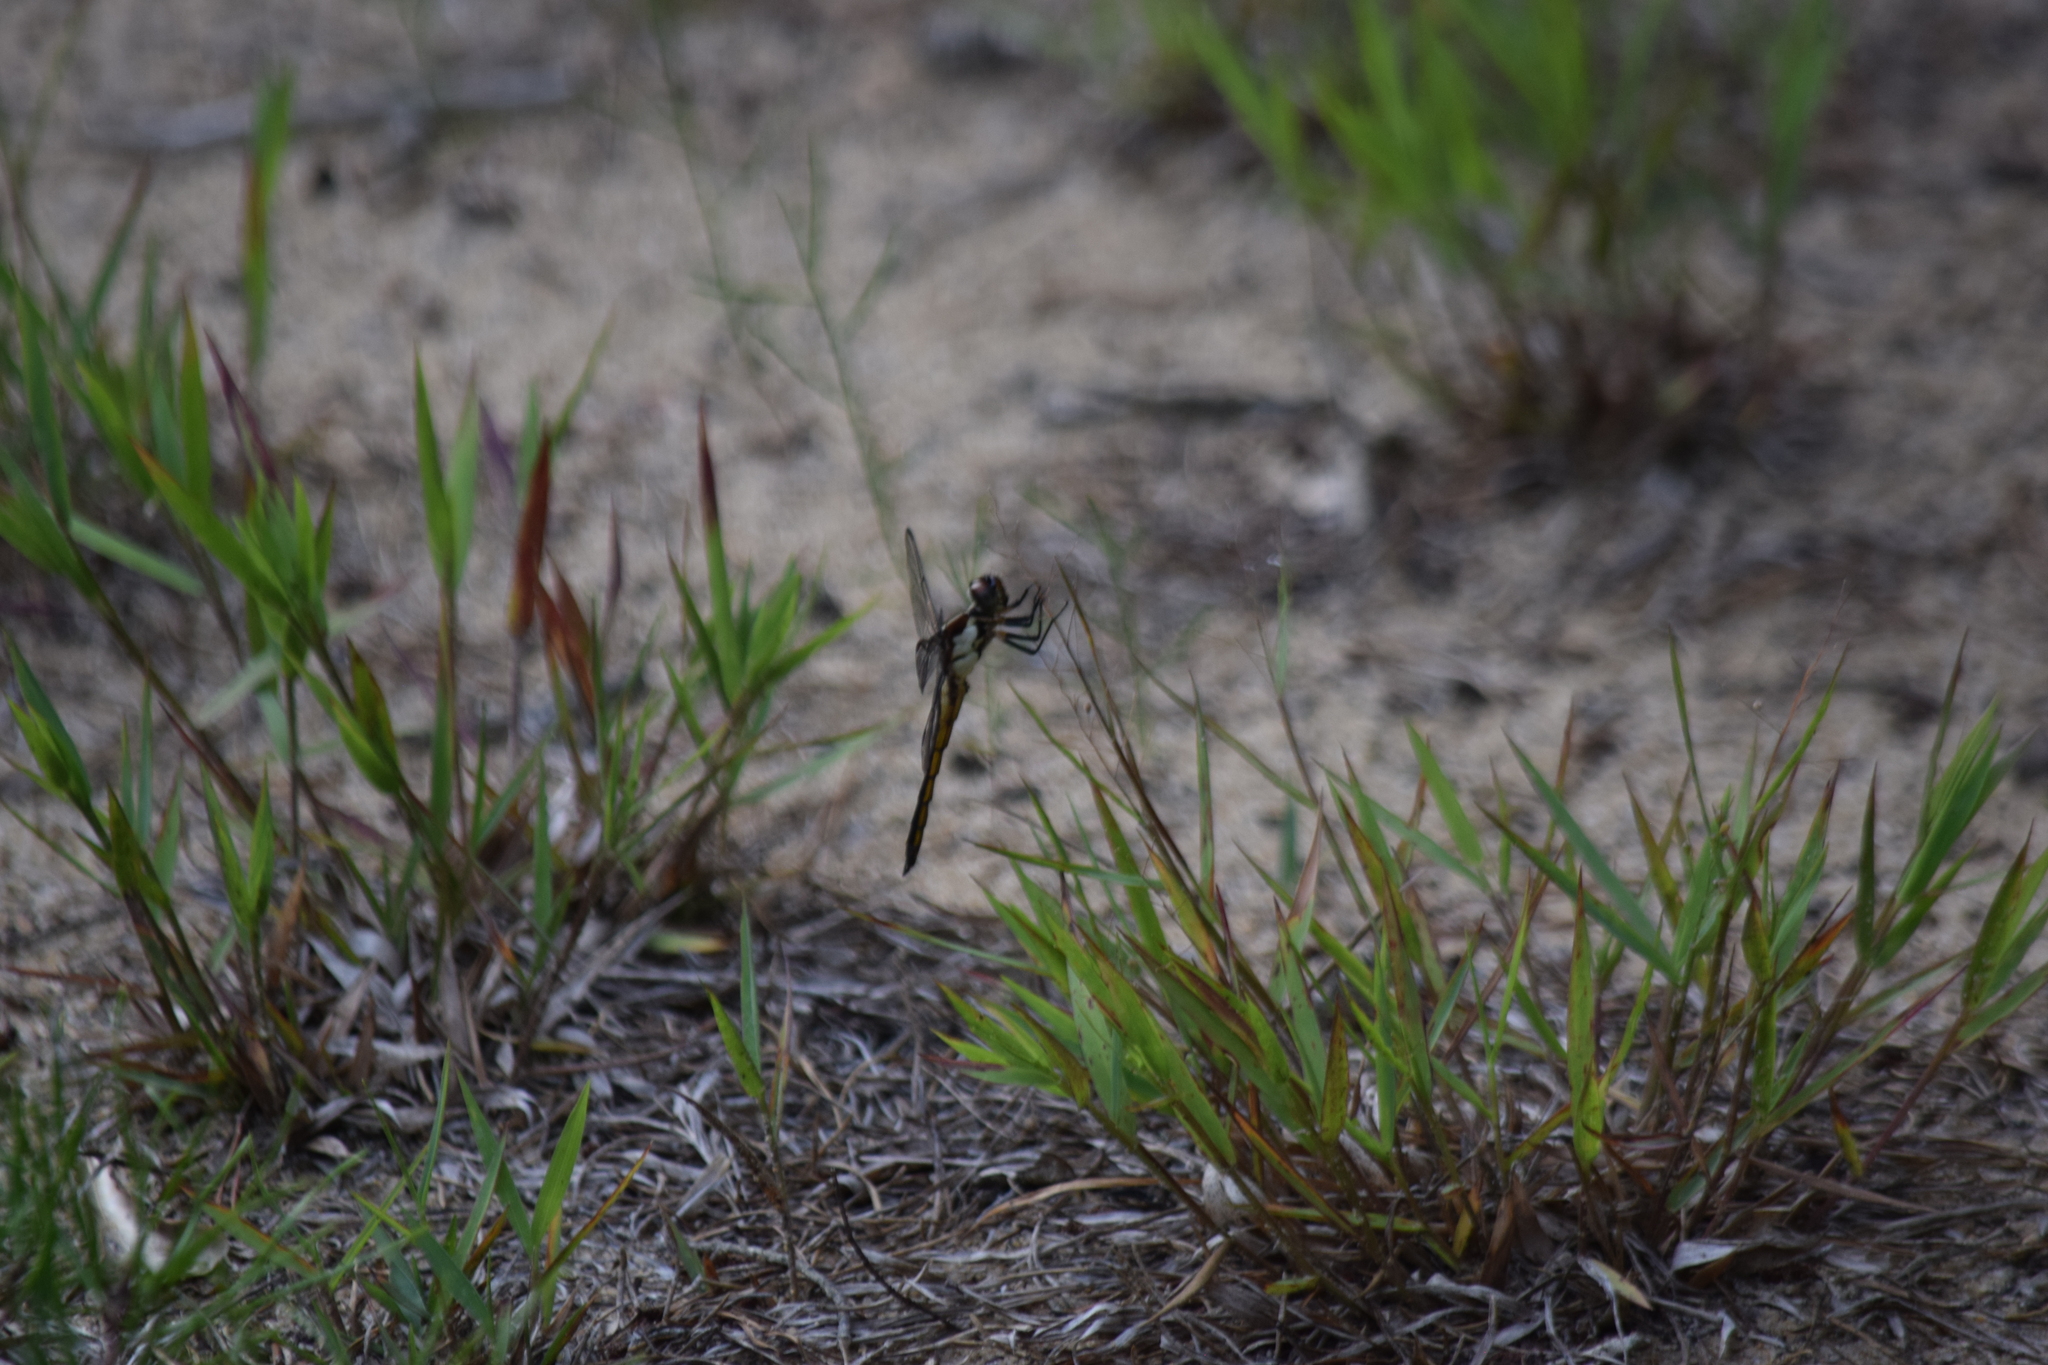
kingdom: Animalia
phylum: Arthropoda
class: Insecta
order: Odonata
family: Libellulidae
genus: Libellula
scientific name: Libellula incesta
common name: Slaty skimmer
